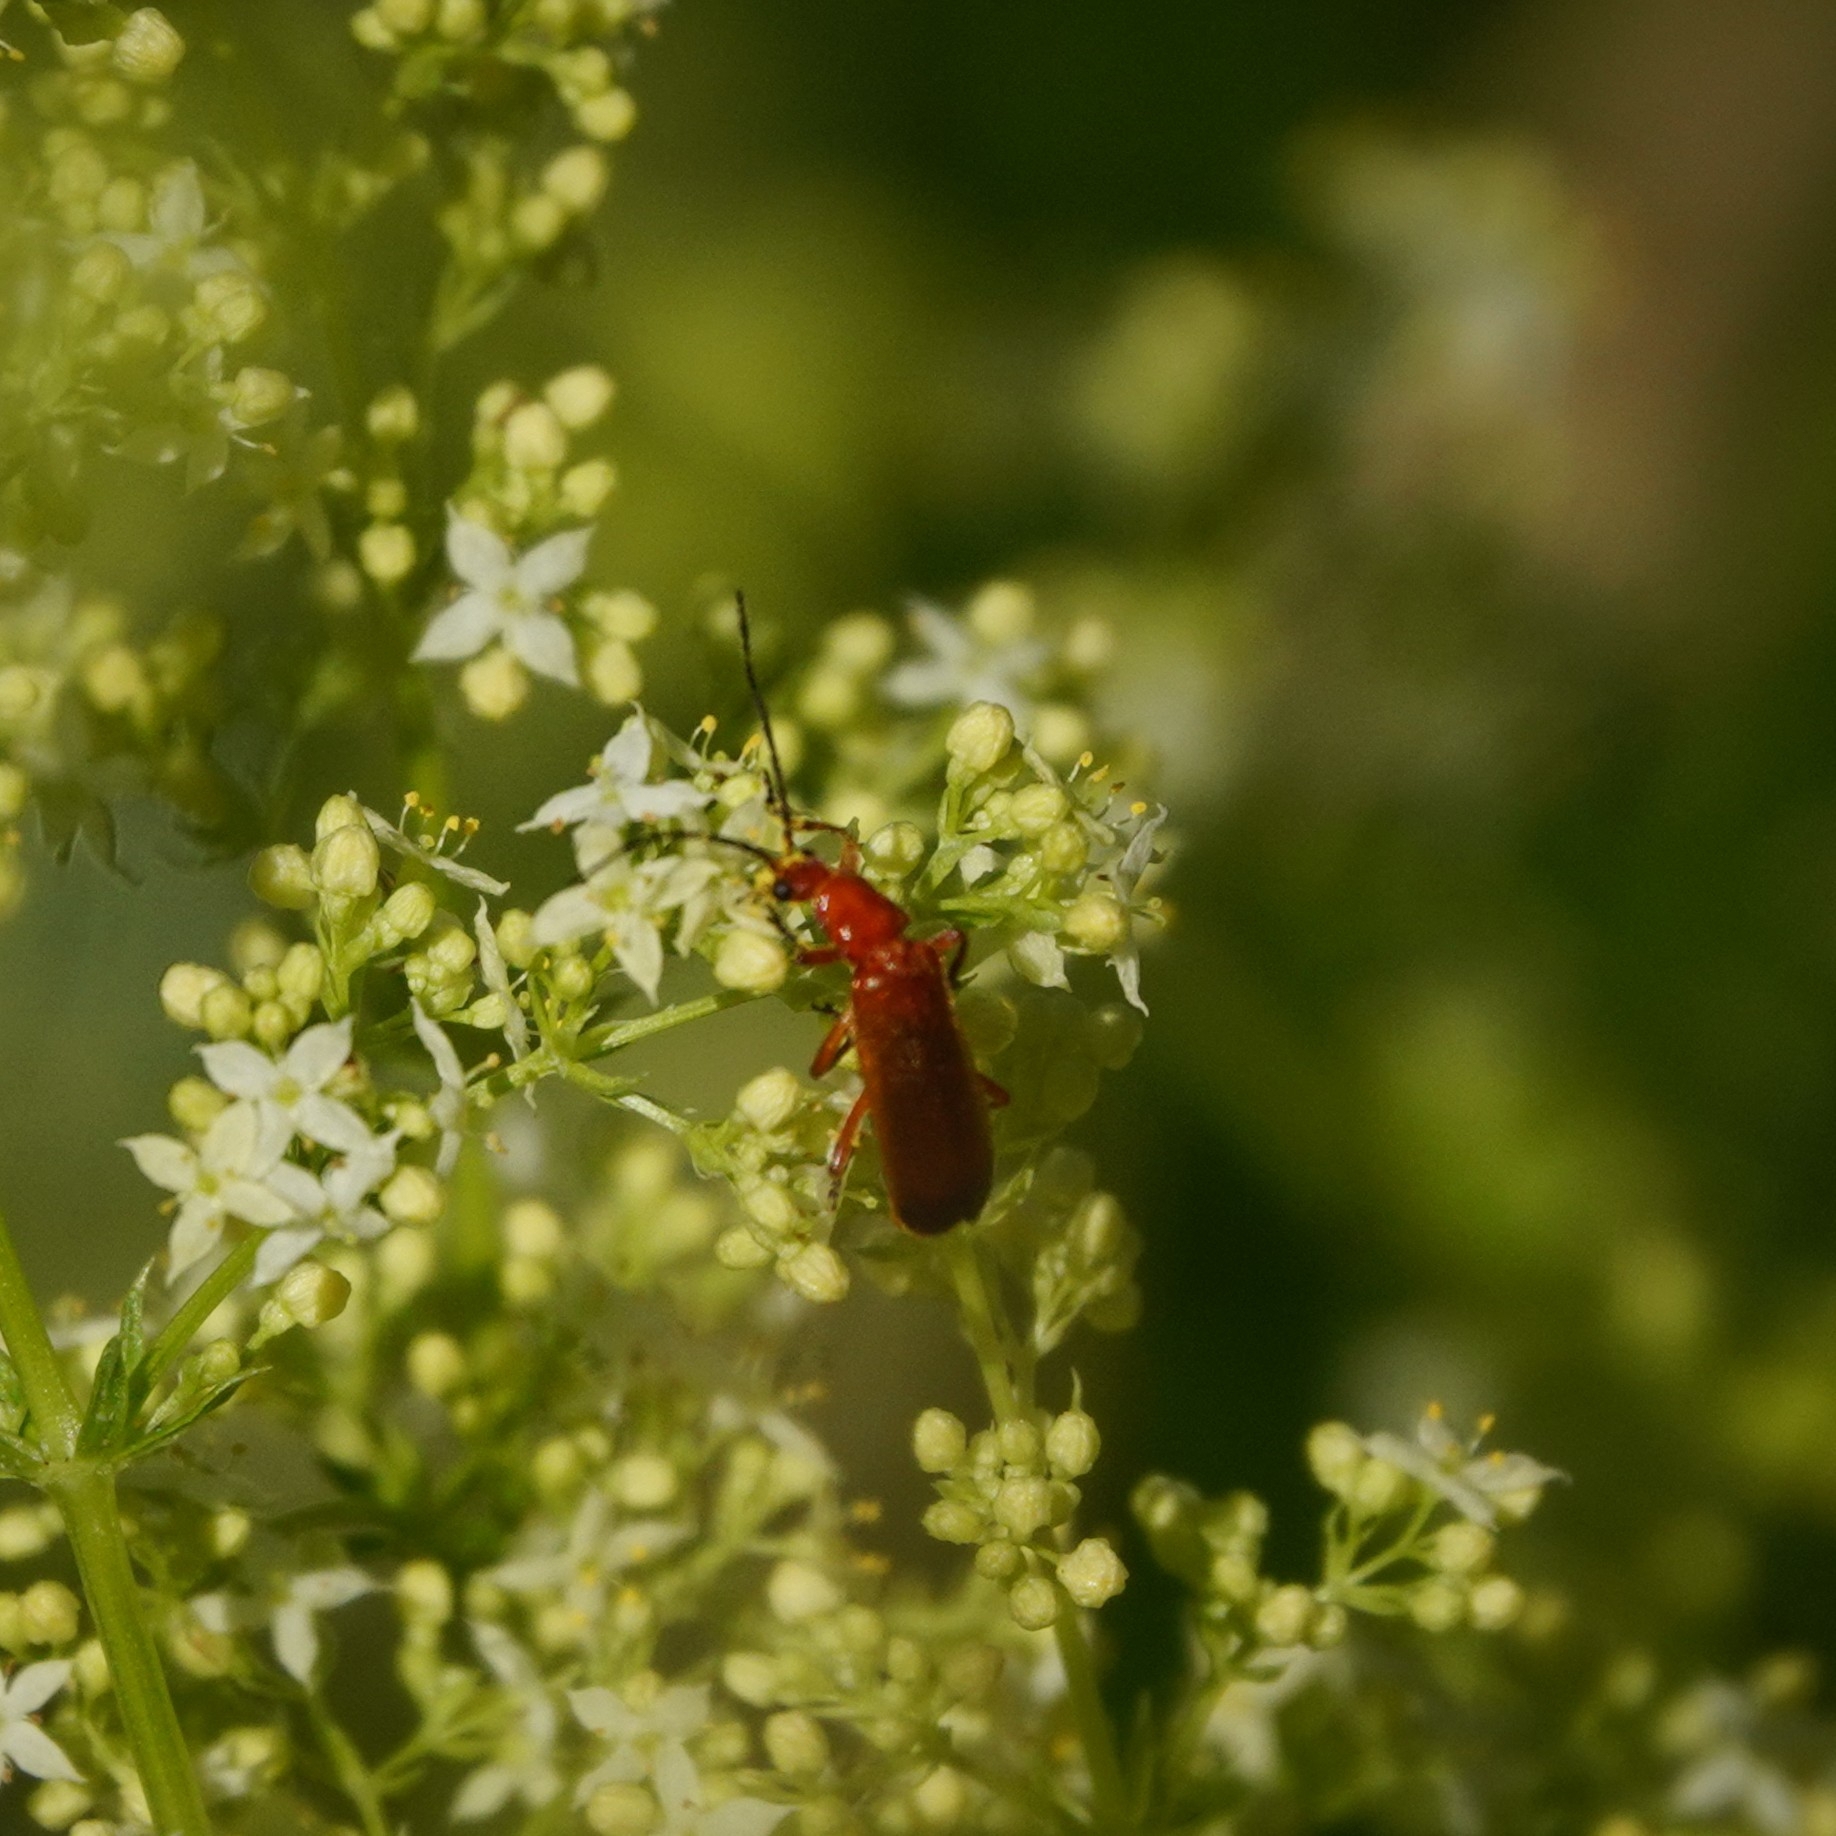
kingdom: Animalia
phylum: Arthropoda
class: Insecta
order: Coleoptera
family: Cantharidae
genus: Rhagonycha
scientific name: Rhagonycha fulva
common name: Common red soldier beetle
